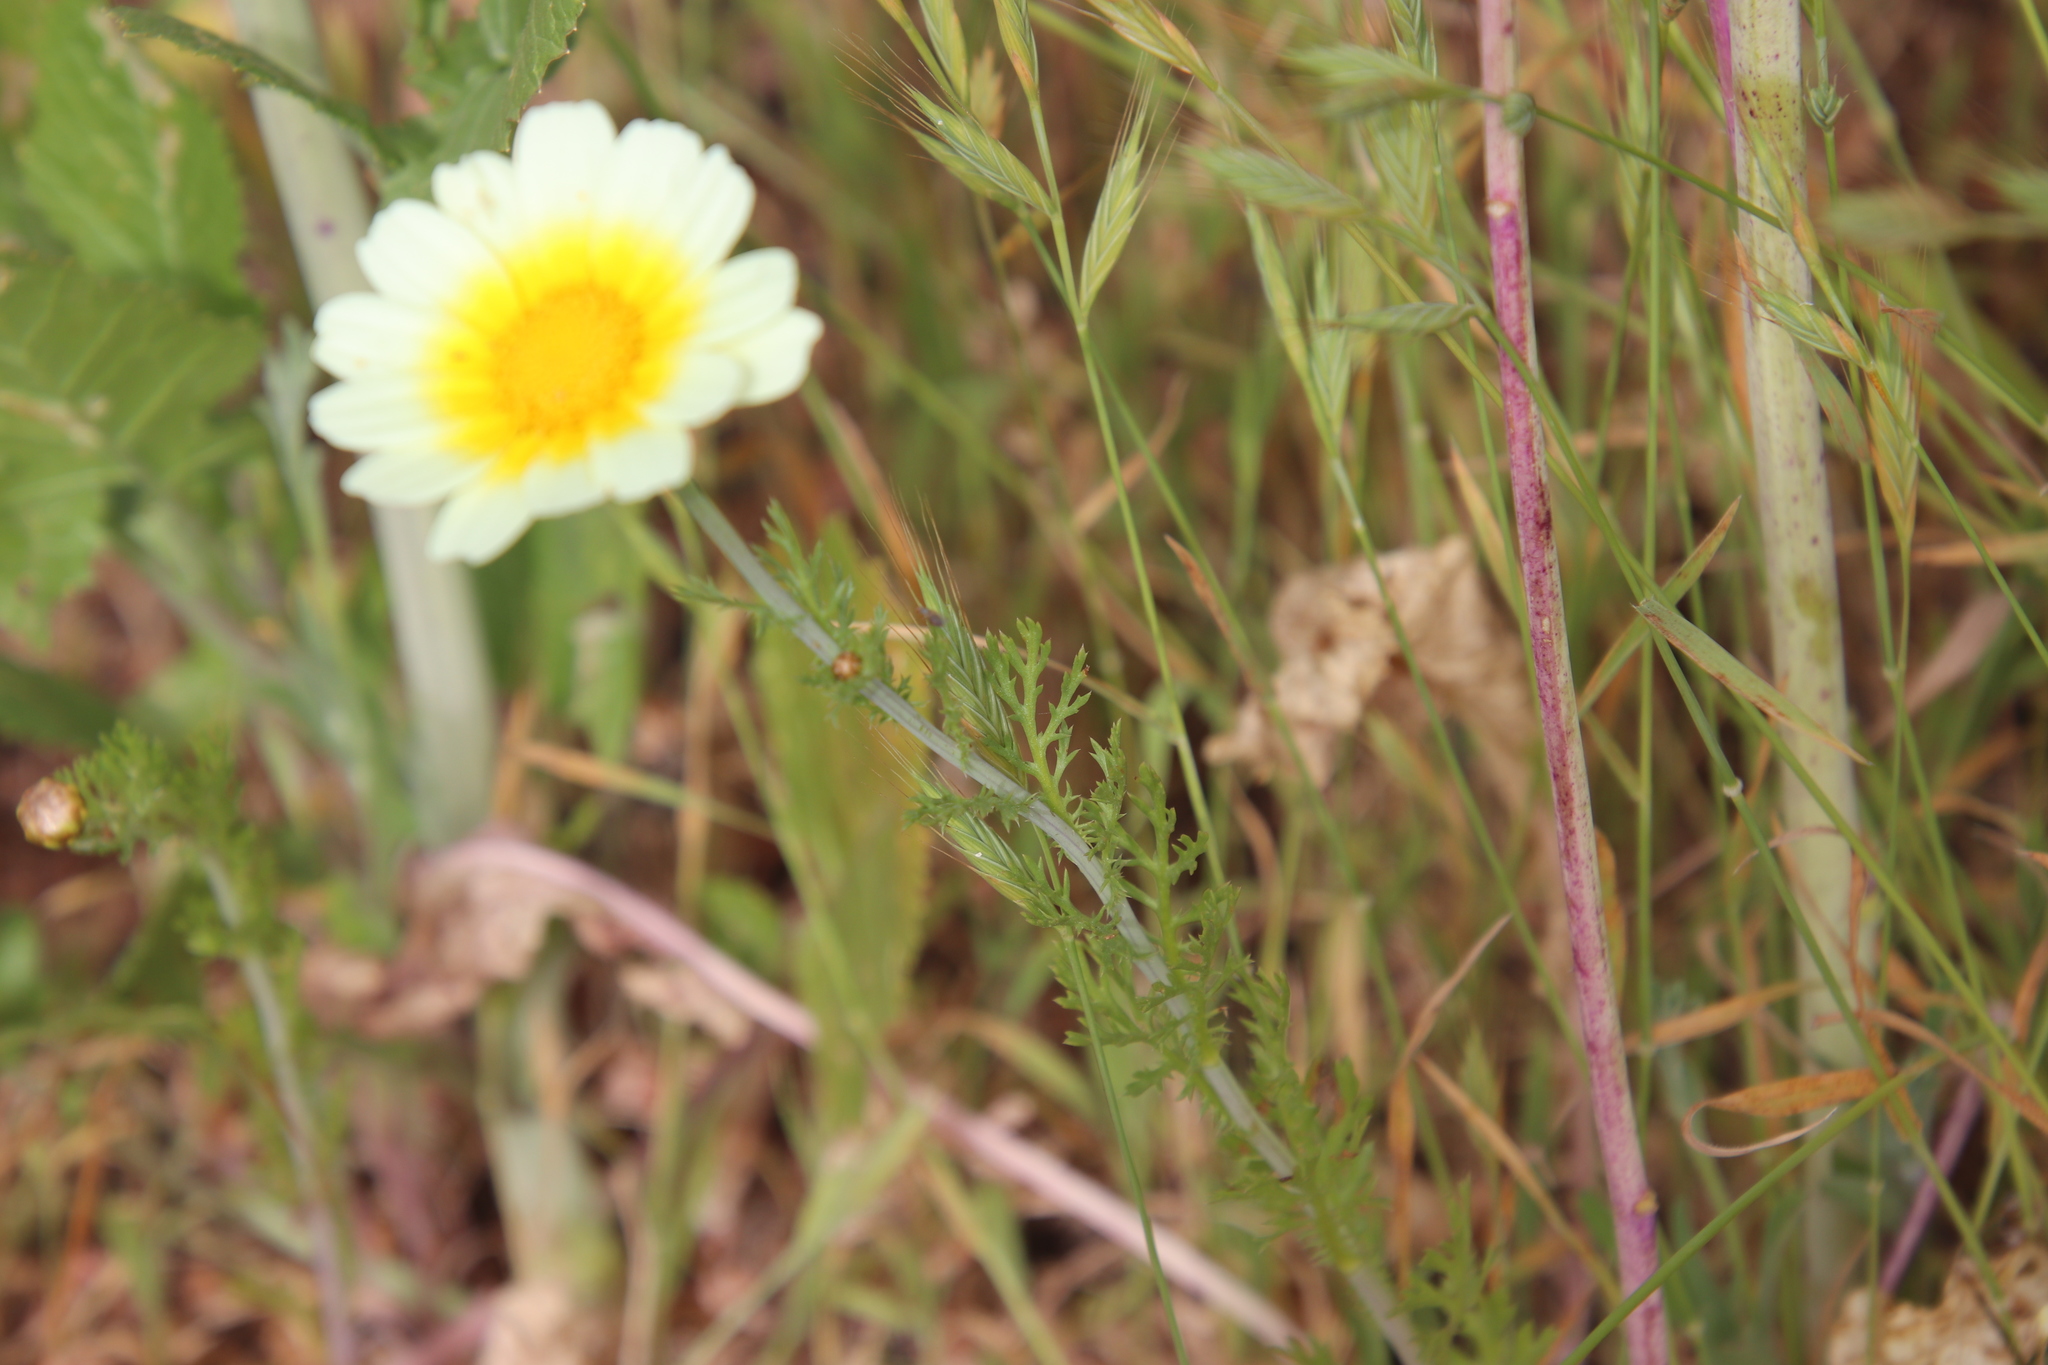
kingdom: Plantae
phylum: Tracheophyta
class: Magnoliopsida
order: Asterales
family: Asteraceae
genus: Glebionis
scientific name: Glebionis coronaria
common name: Crowndaisy
